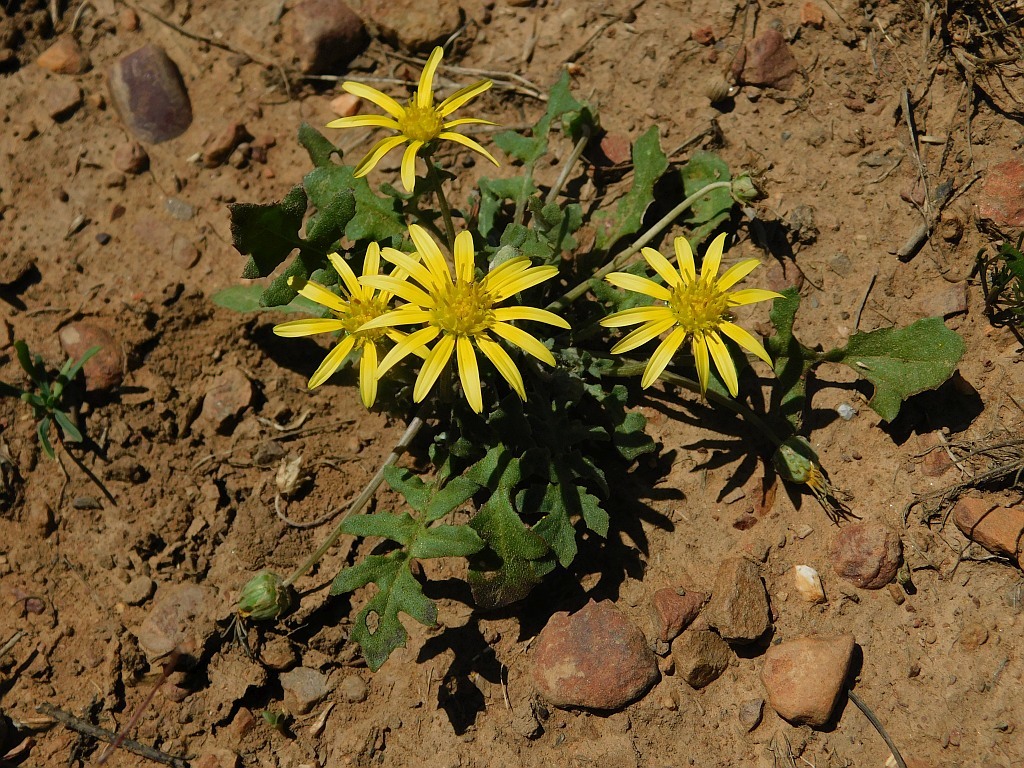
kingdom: Plantae
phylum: Tracheophyta
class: Magnoliopsida
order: Asterales
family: Asteraceae
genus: Arctotheca
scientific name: Arctotheca prostrata
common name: Capeweed
